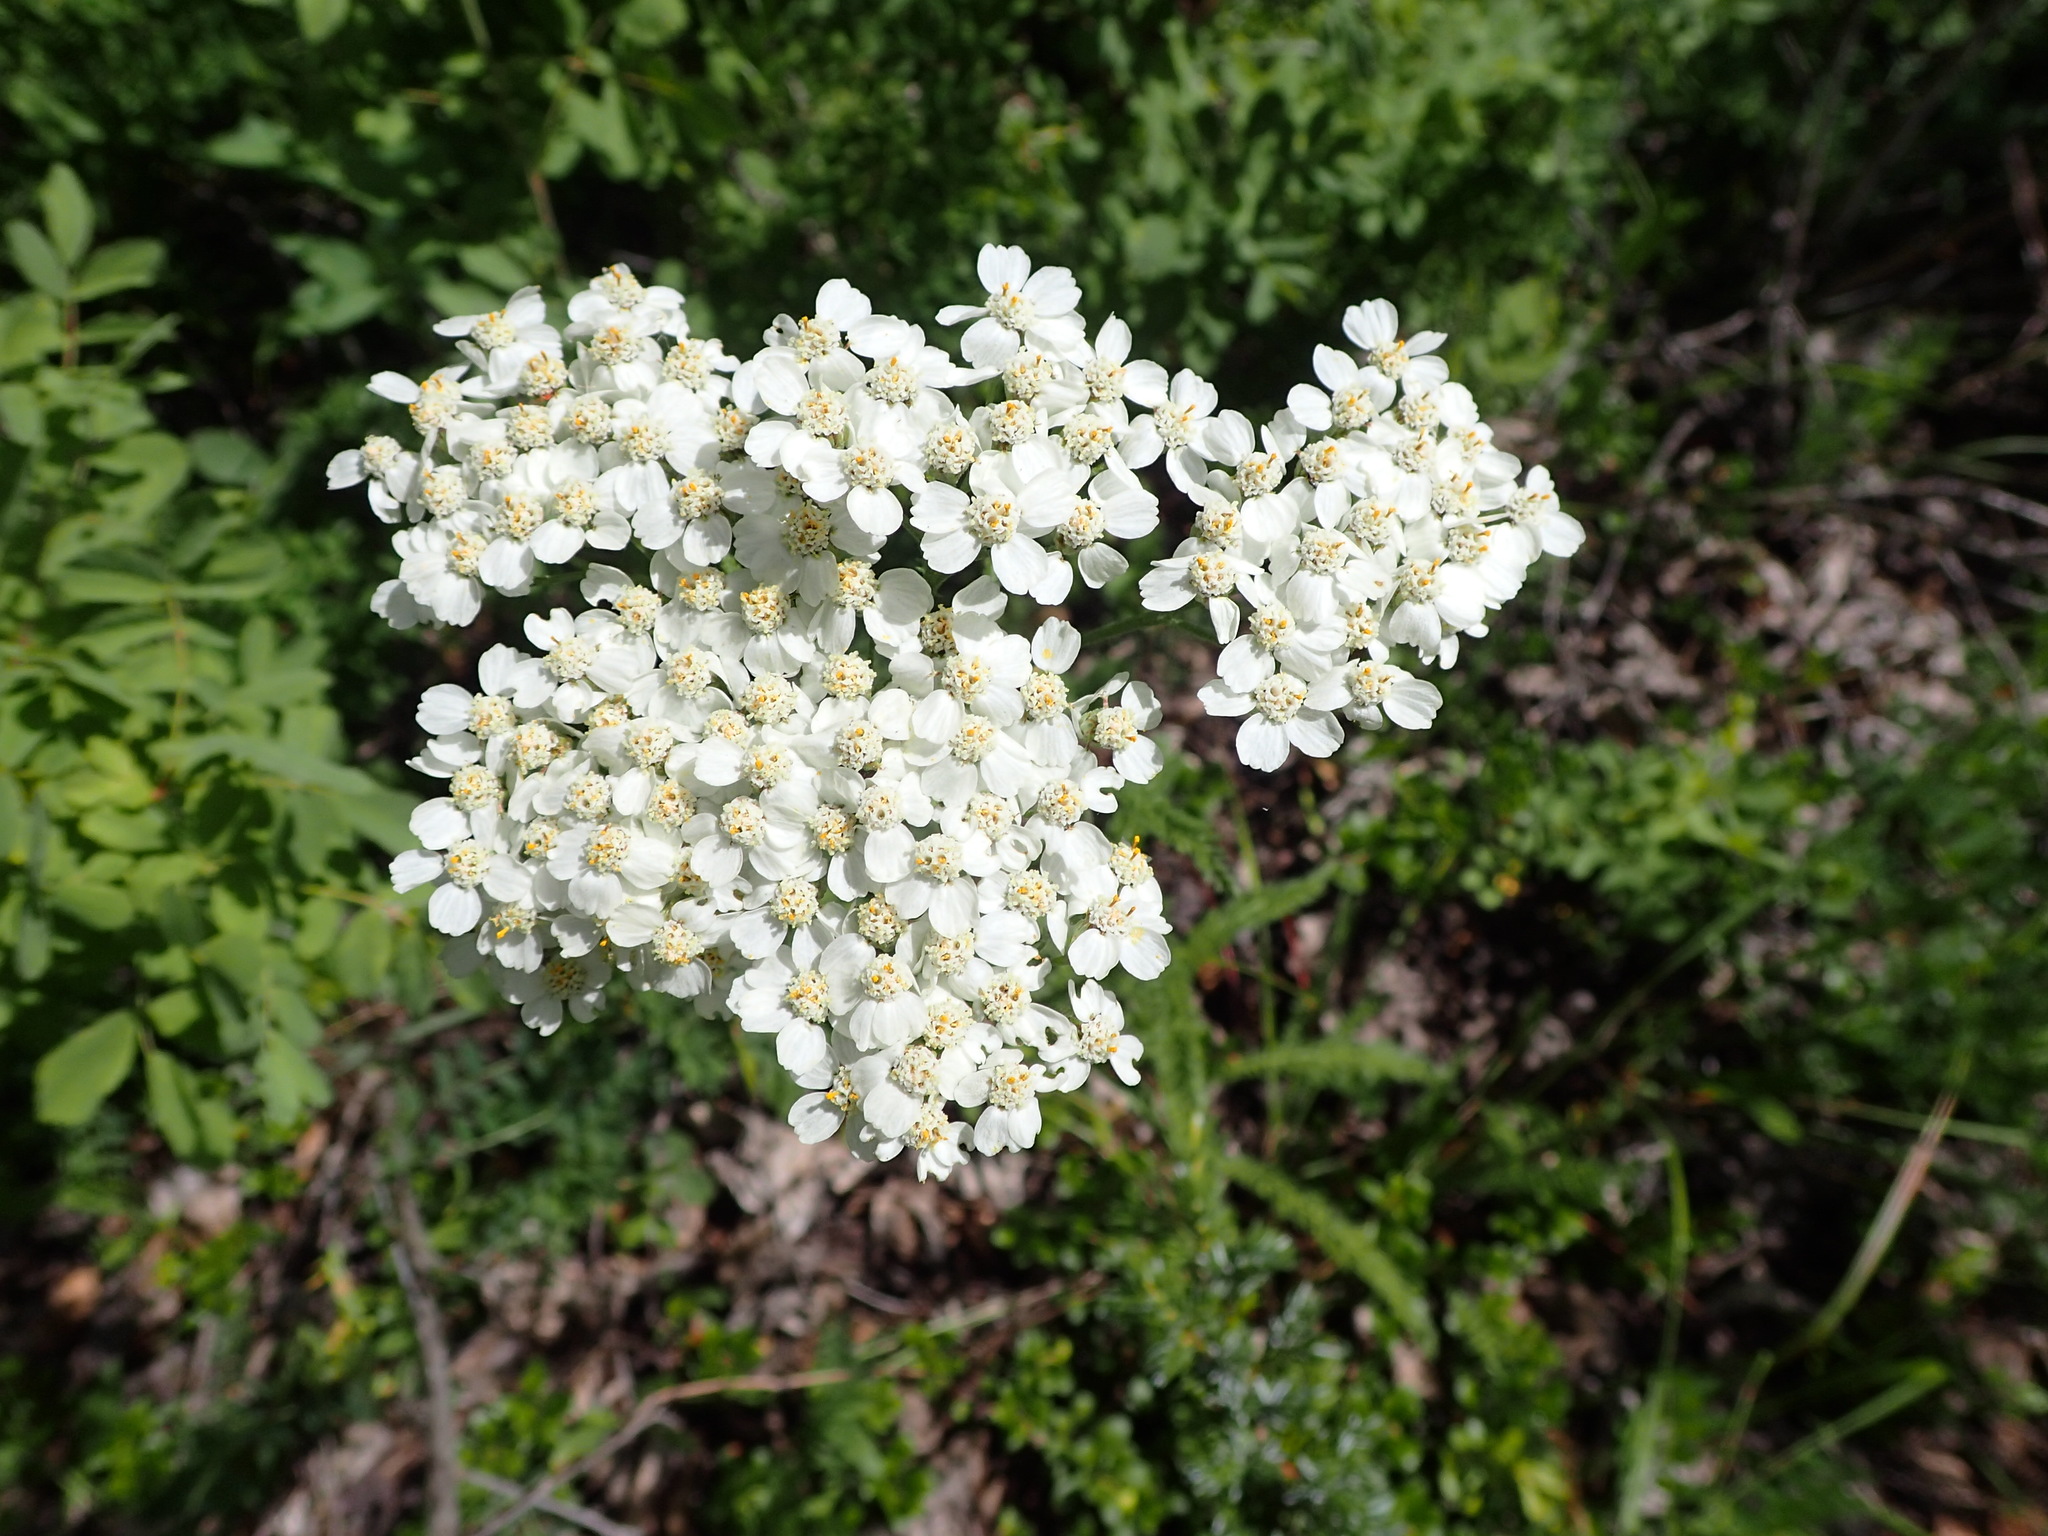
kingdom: Plantae
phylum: Tracheophyta
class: Magnoliopsida
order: Asterales
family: Asteraceae
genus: Achillea
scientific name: Achillea millefolium
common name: Yarrow
